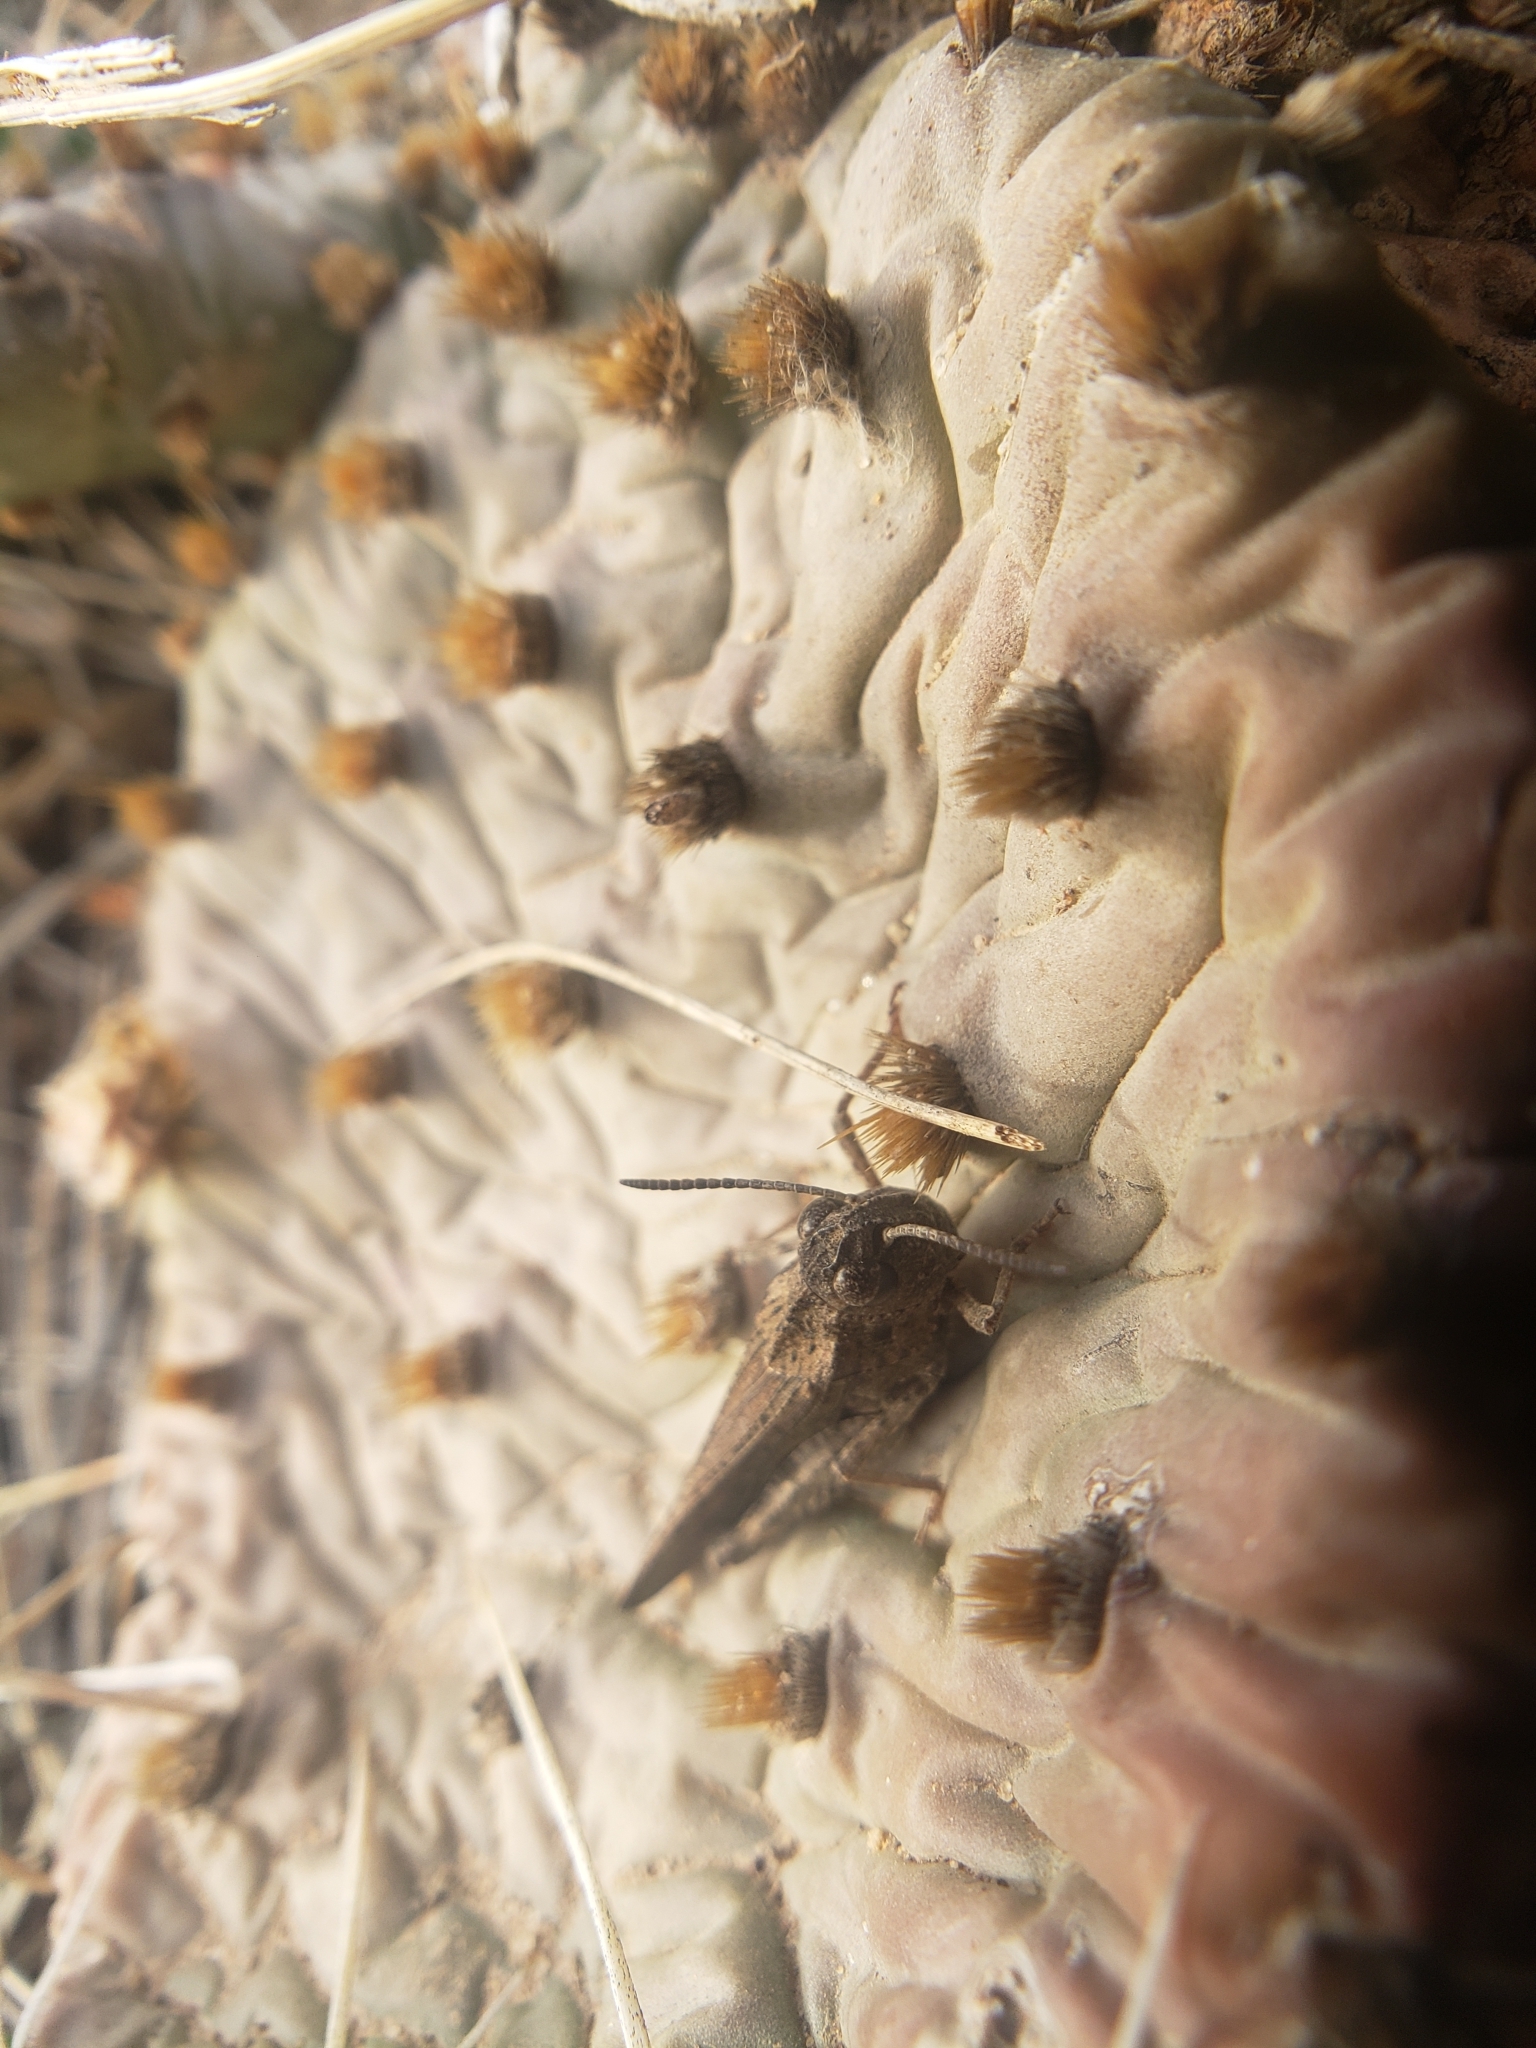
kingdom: Animalia
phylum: Arthropoda
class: Insecta
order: Orthoptera
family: Acrididae
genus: Arphia
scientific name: Arphia conspersa
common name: Speckle-winged rangeland grasshopper
